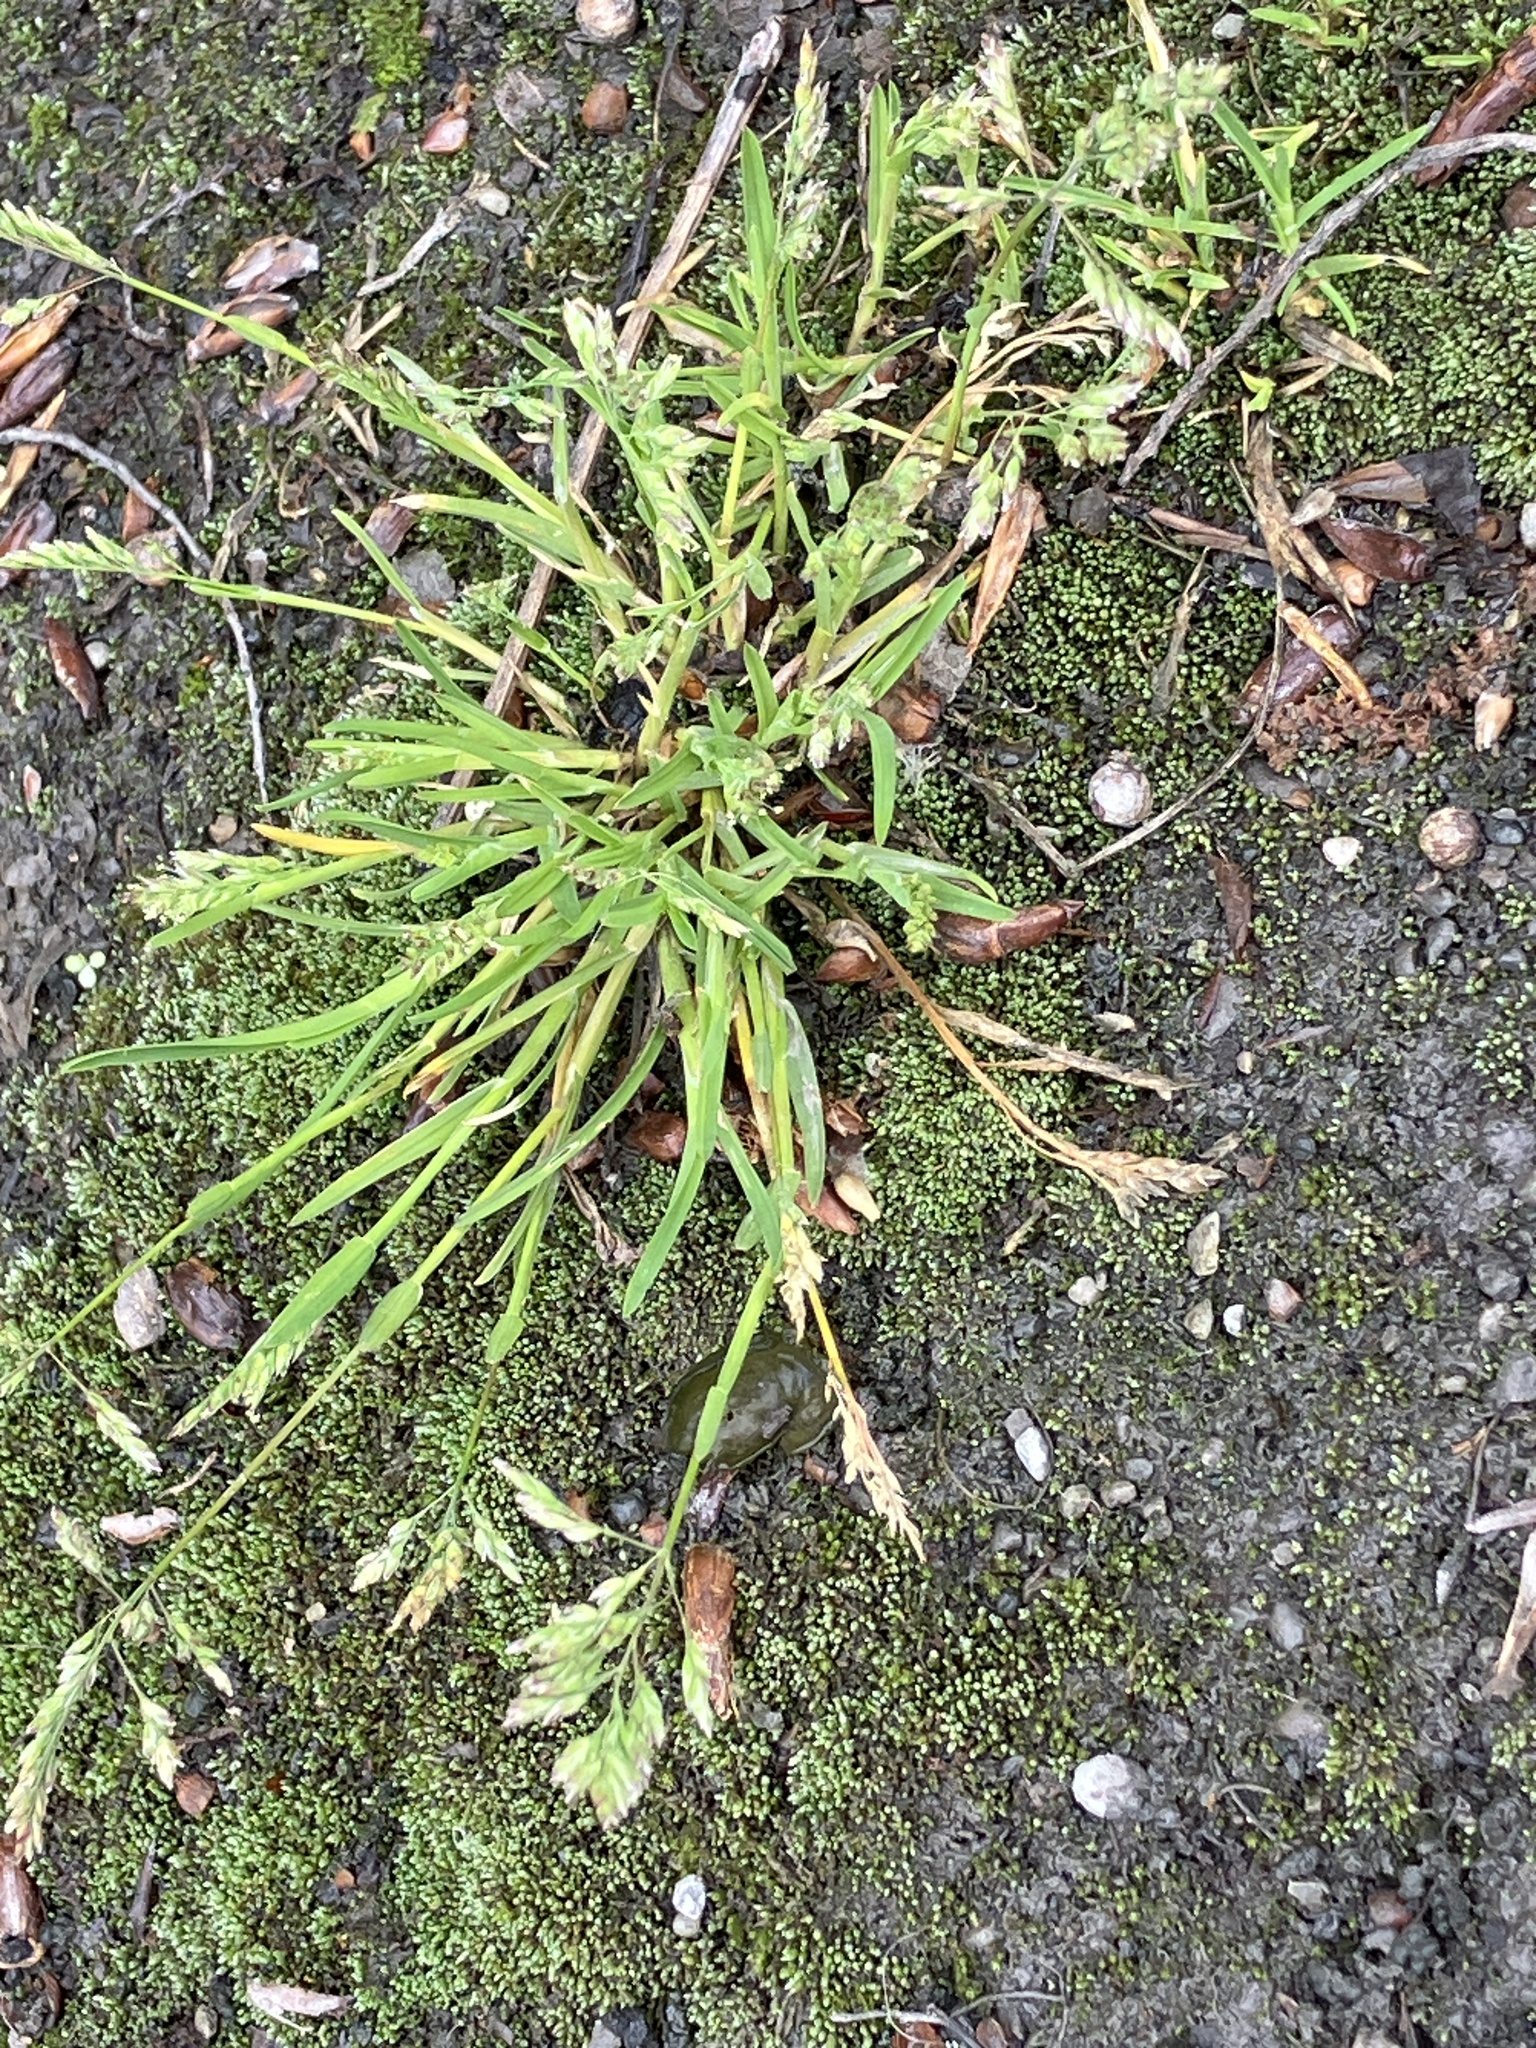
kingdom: Plantae
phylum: Tracheophyta
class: Liliopsida
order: Poales
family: Poaceae
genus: Poa
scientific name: Poa annua
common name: Annual bluegrass
